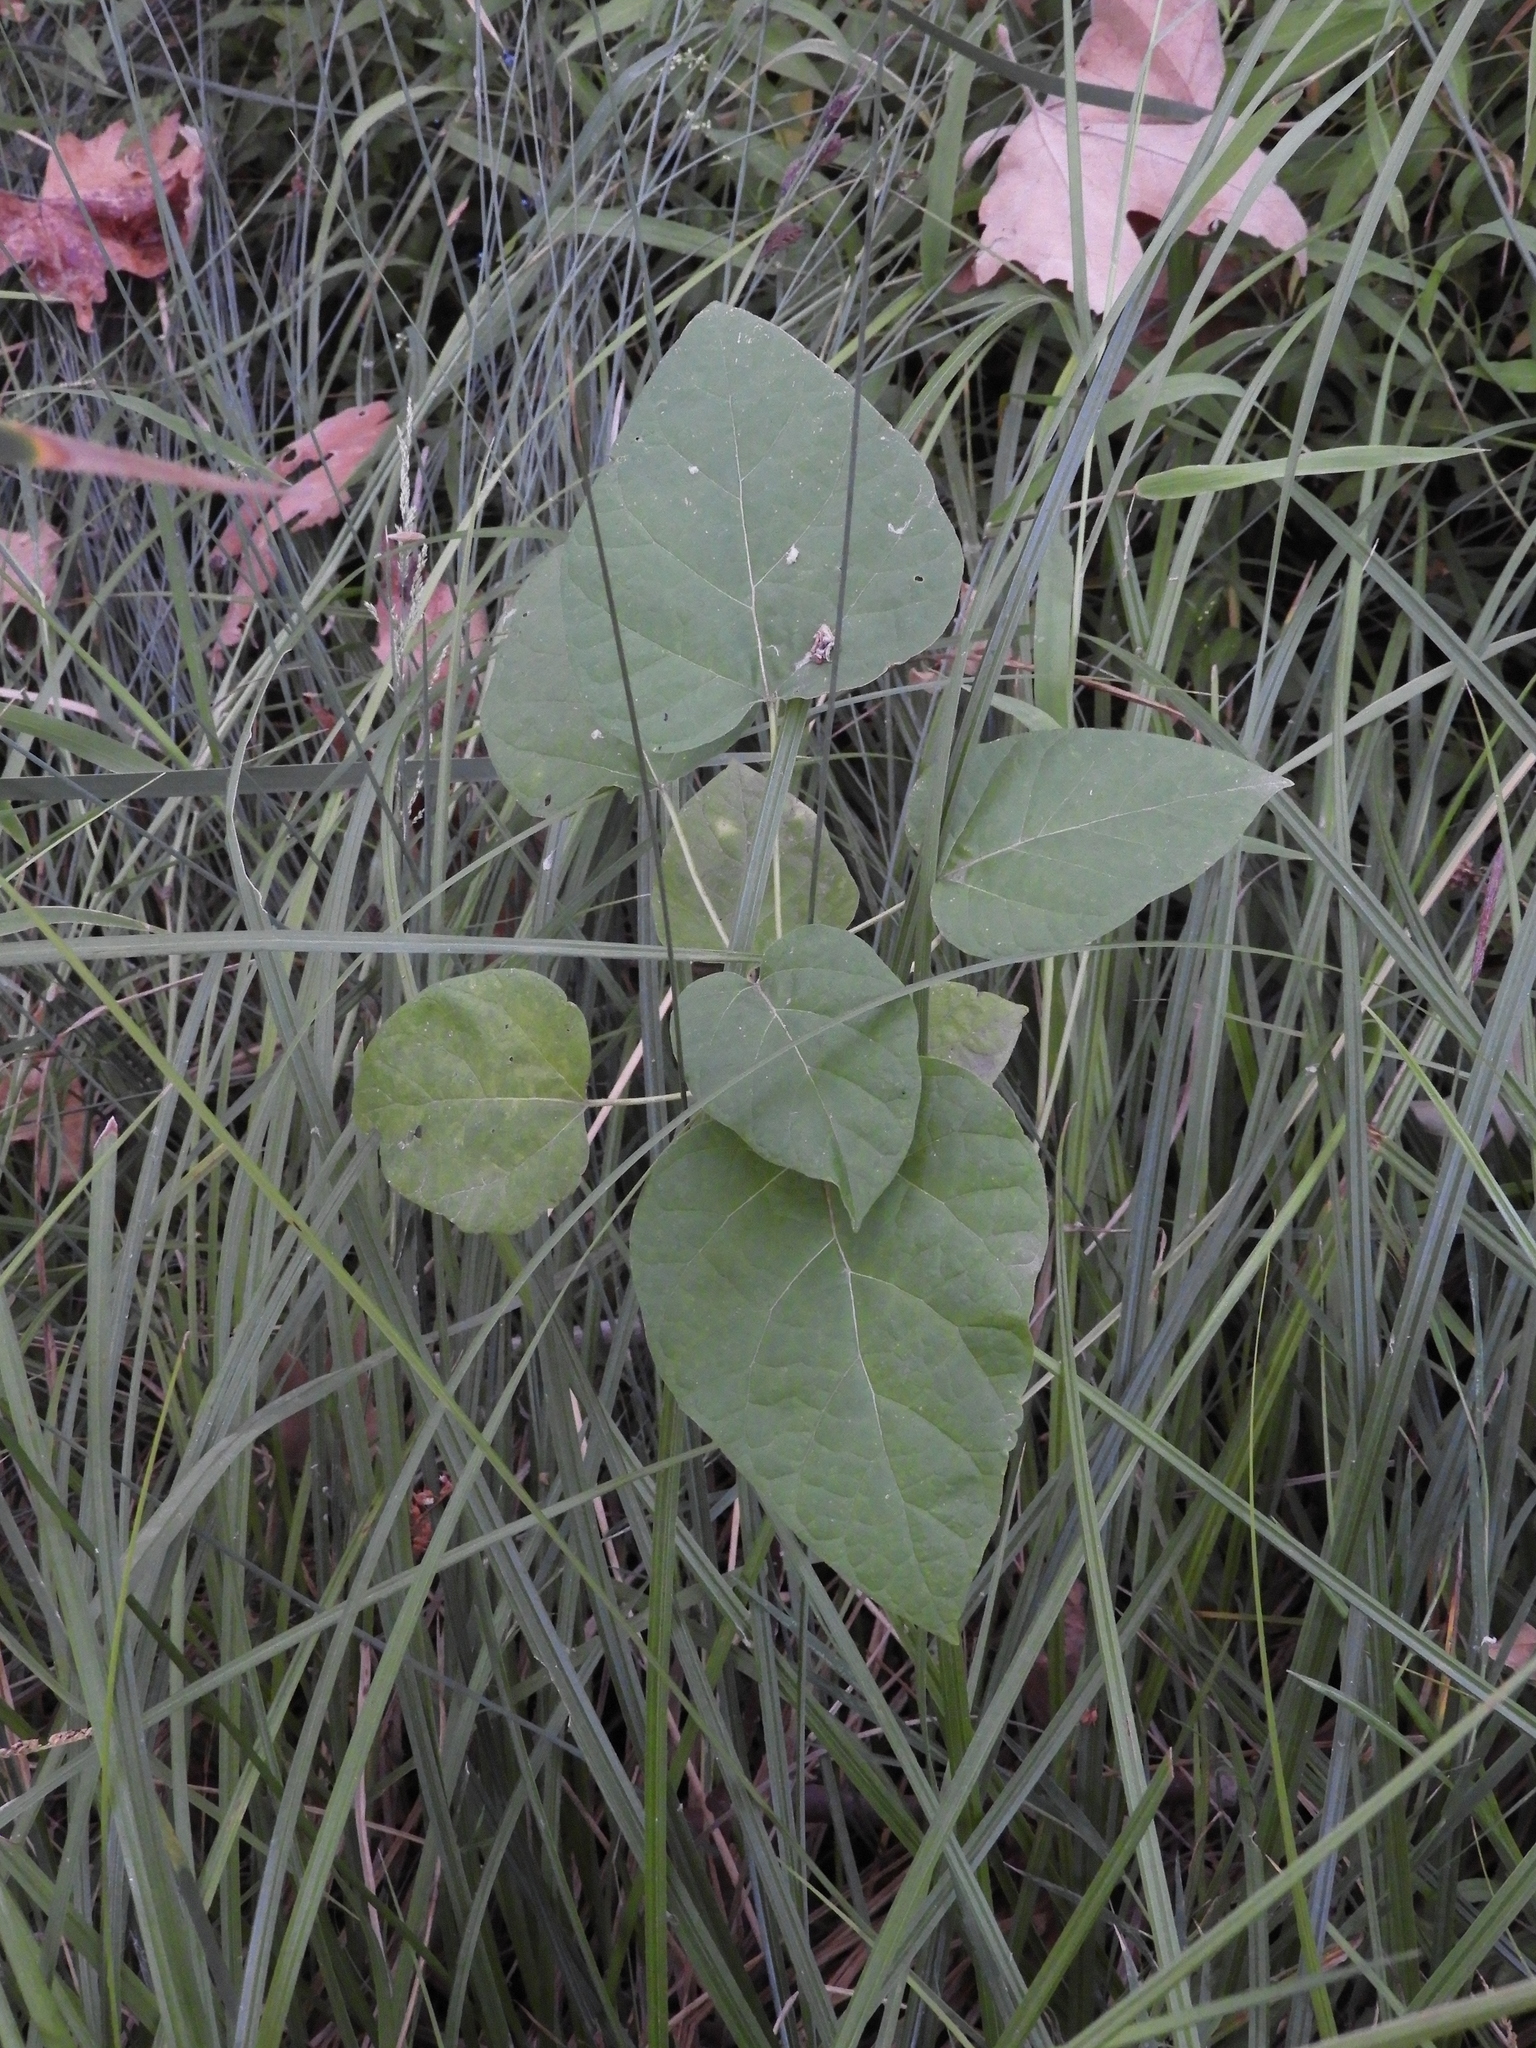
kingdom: Plantae
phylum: Tracheophyta
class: Magnoliopsida
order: Lamiales
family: Bignoniaceae
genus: Catalpa
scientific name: Catalpa speciosa
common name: Northern catalpa
